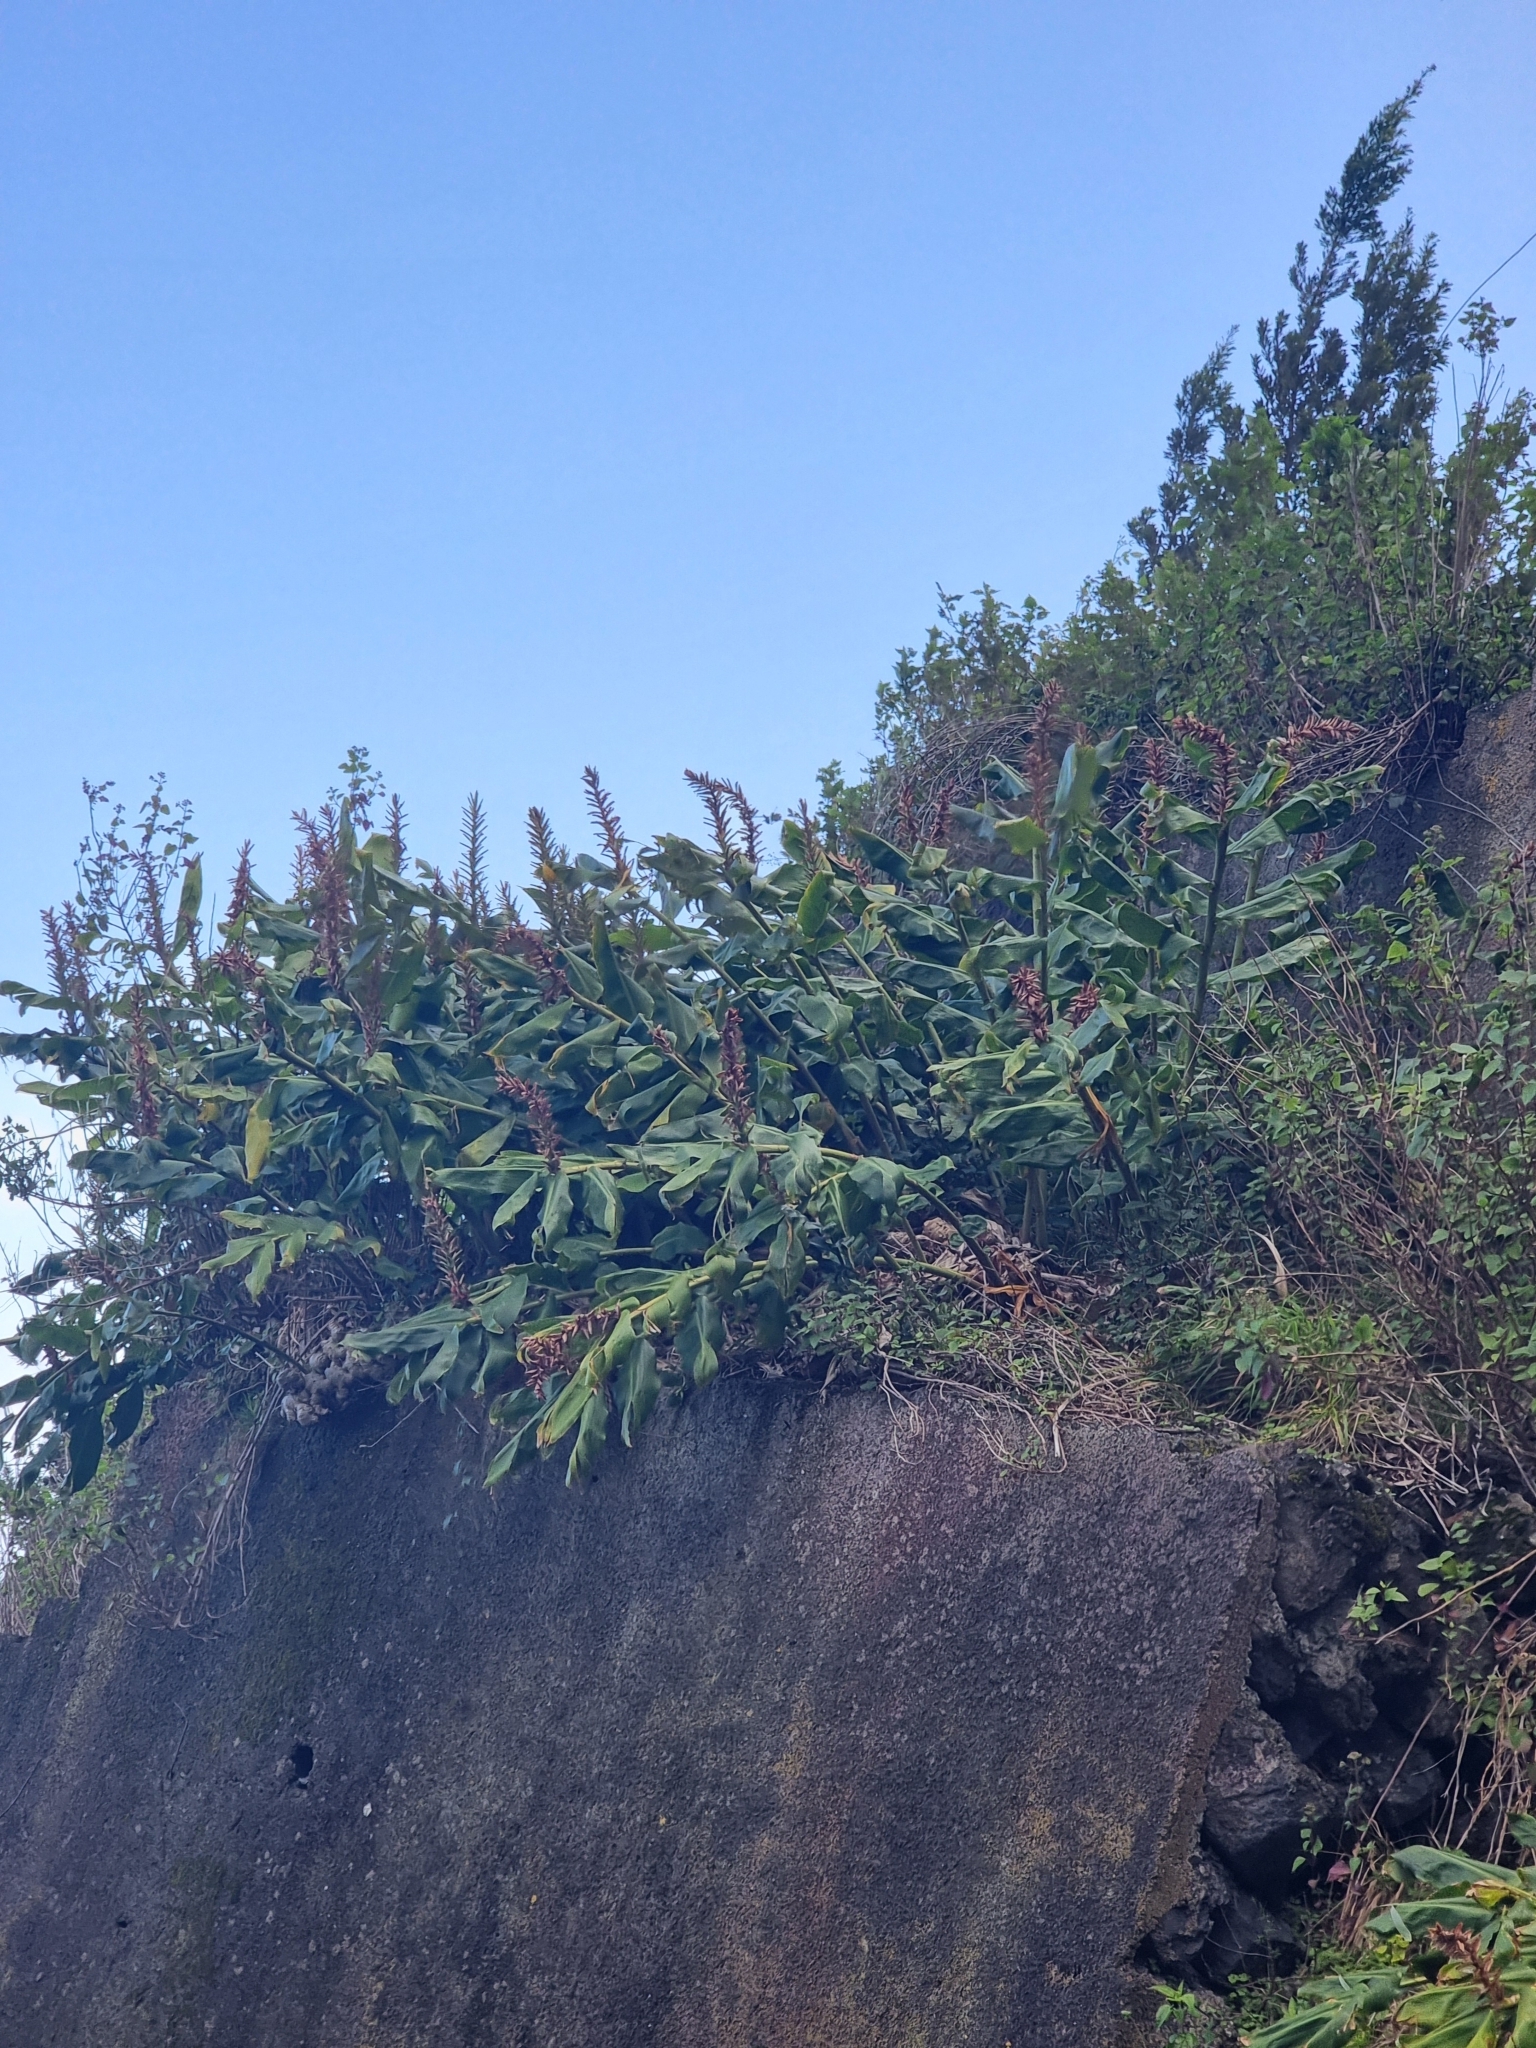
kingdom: Plantae
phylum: Tracheophyta
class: Liliopsida
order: Zingiberales
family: Zingiberaceae
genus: Hedychium
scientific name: Hedychium gardnerianum
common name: Himalayan ginger
